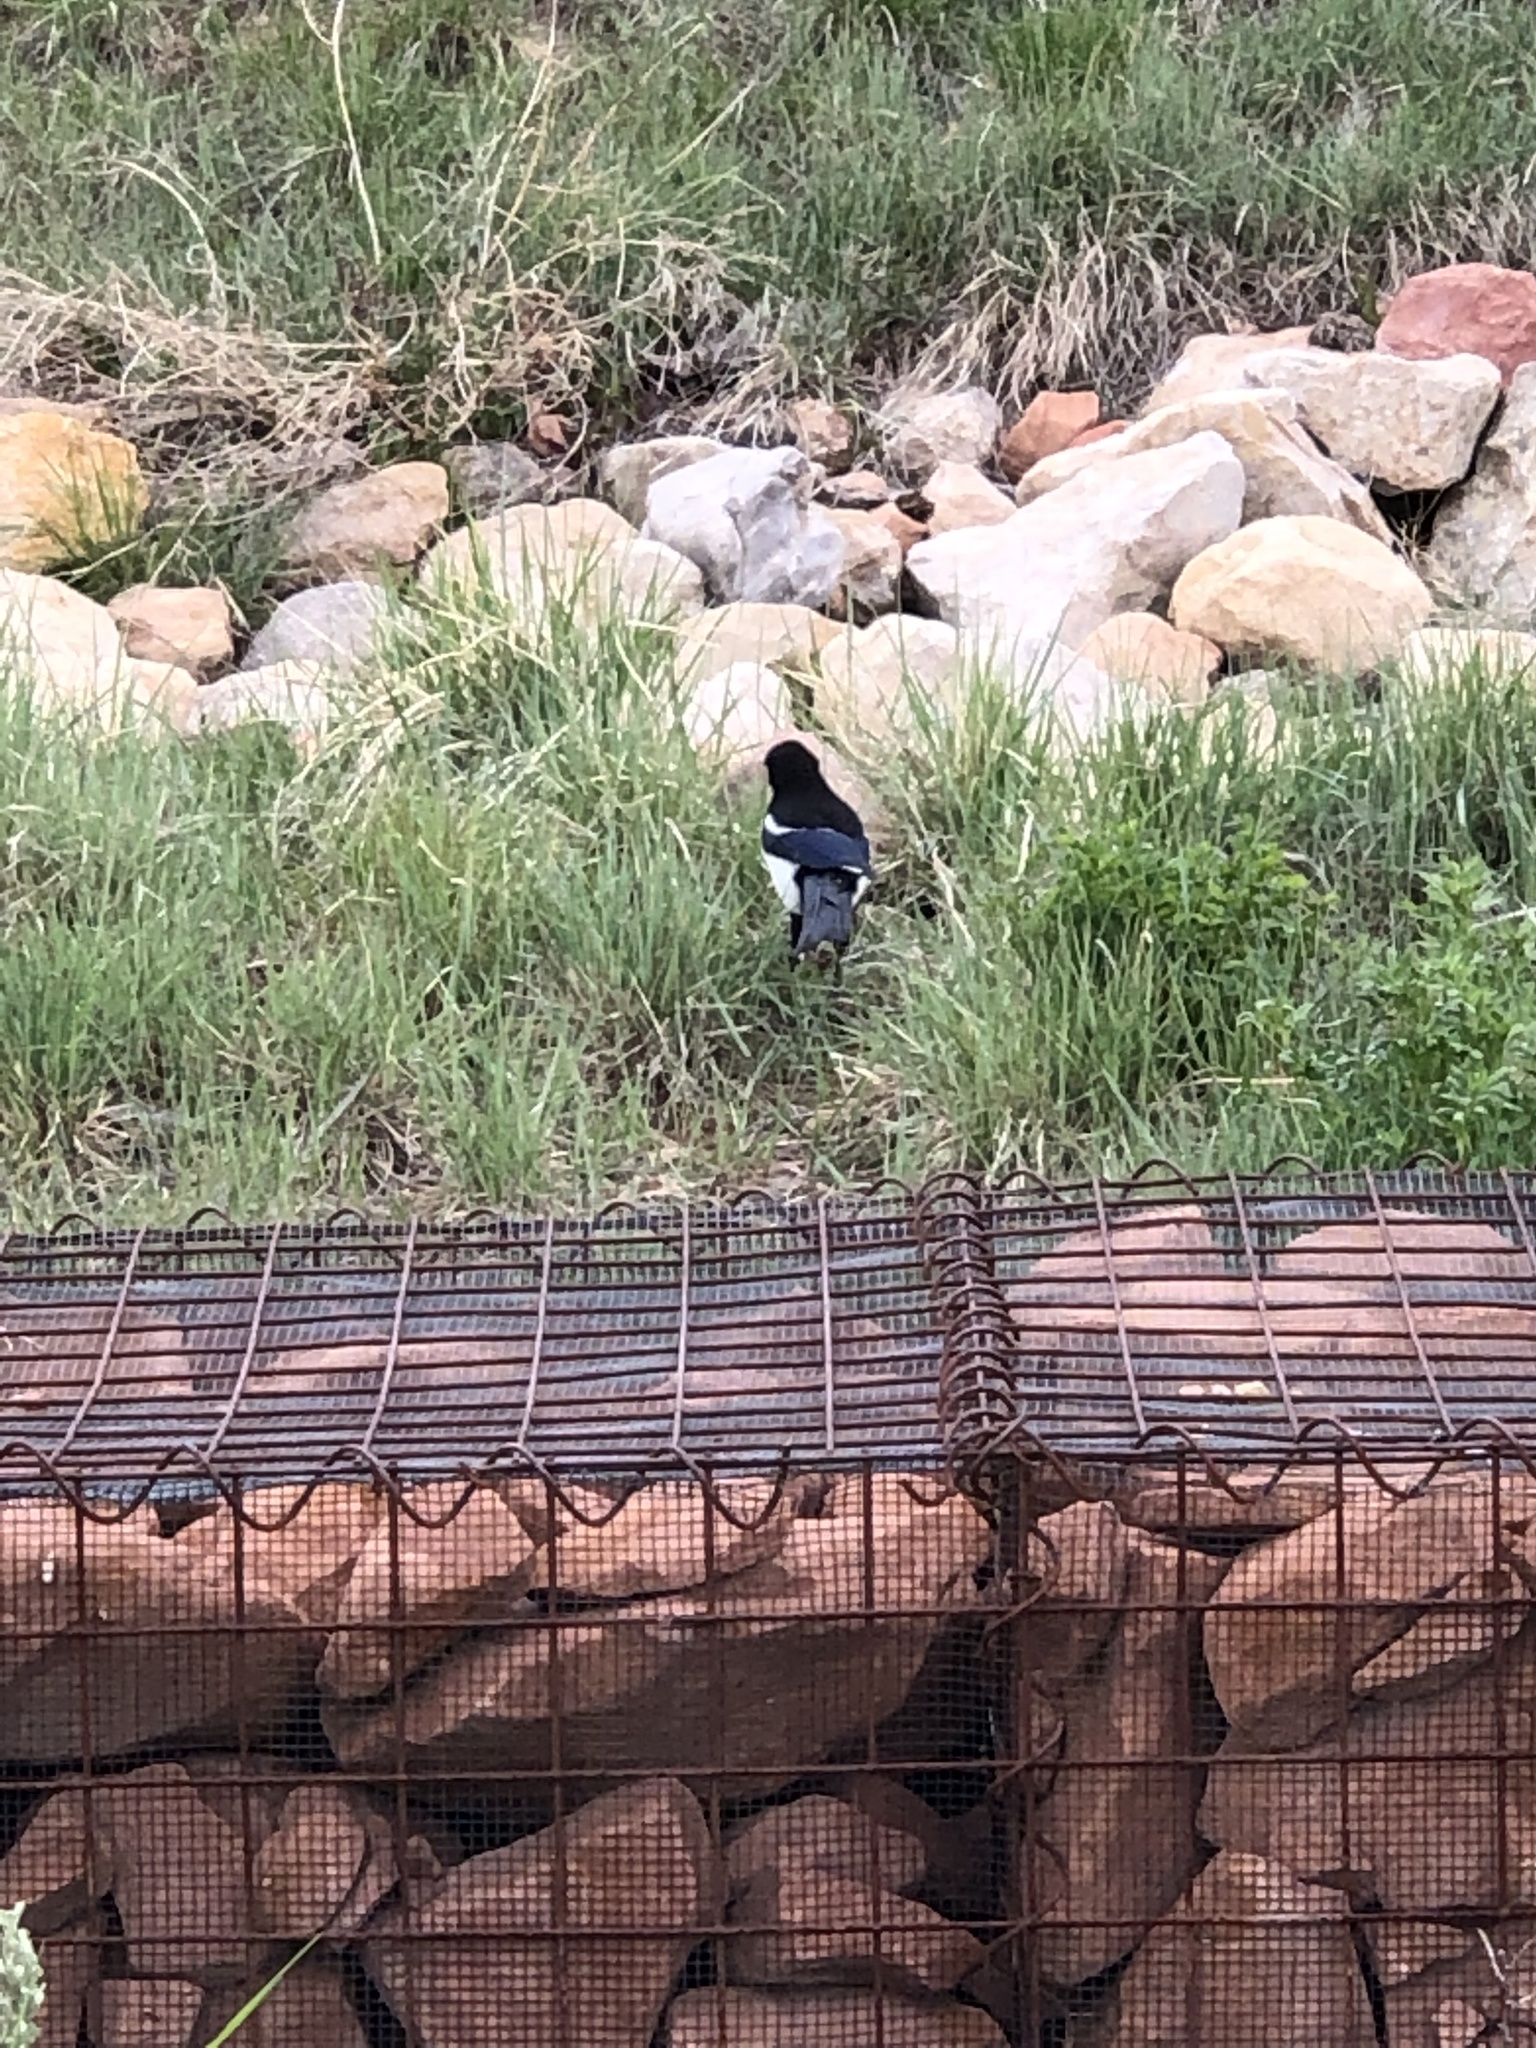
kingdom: Animalia
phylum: Chordata
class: Aves
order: Passeriformes
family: Corvidae
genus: Pica
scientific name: Pica hudsonia
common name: Black-billed magpie
